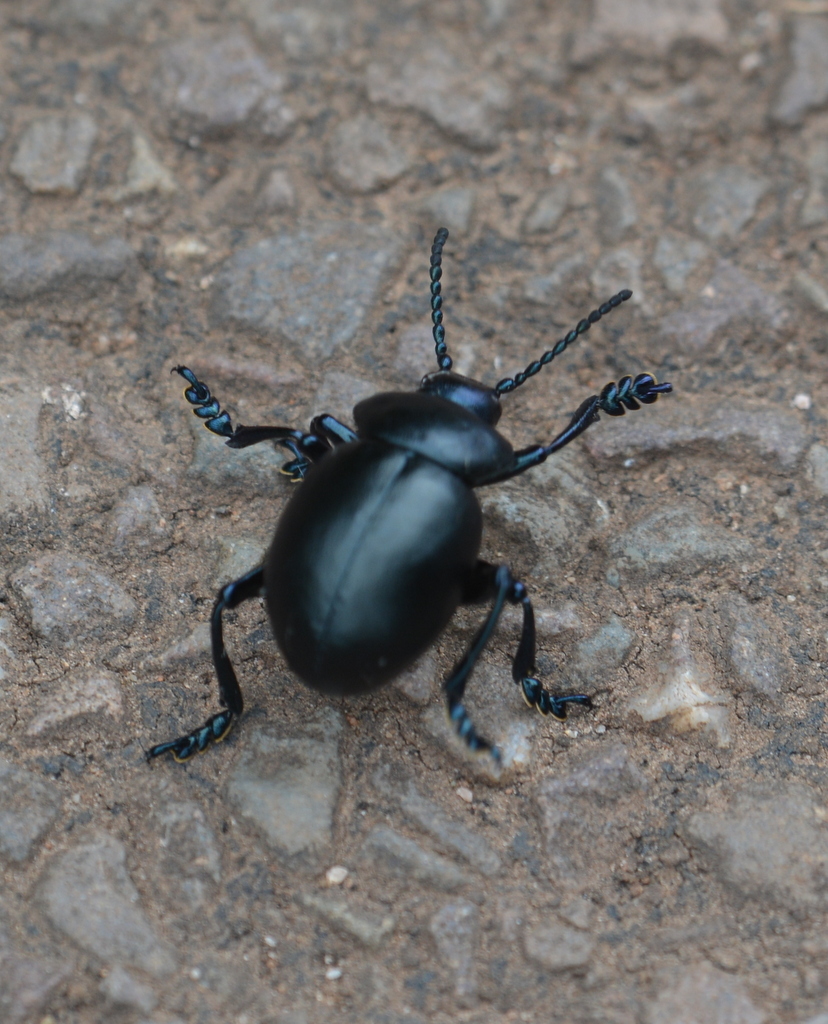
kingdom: Animalia
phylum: Arthropoda
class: Insecta
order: Coleoptera
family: Chrysomelidae
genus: Timarcha
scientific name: Timarcha tenebricosa
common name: Bloody-nosed beetle
